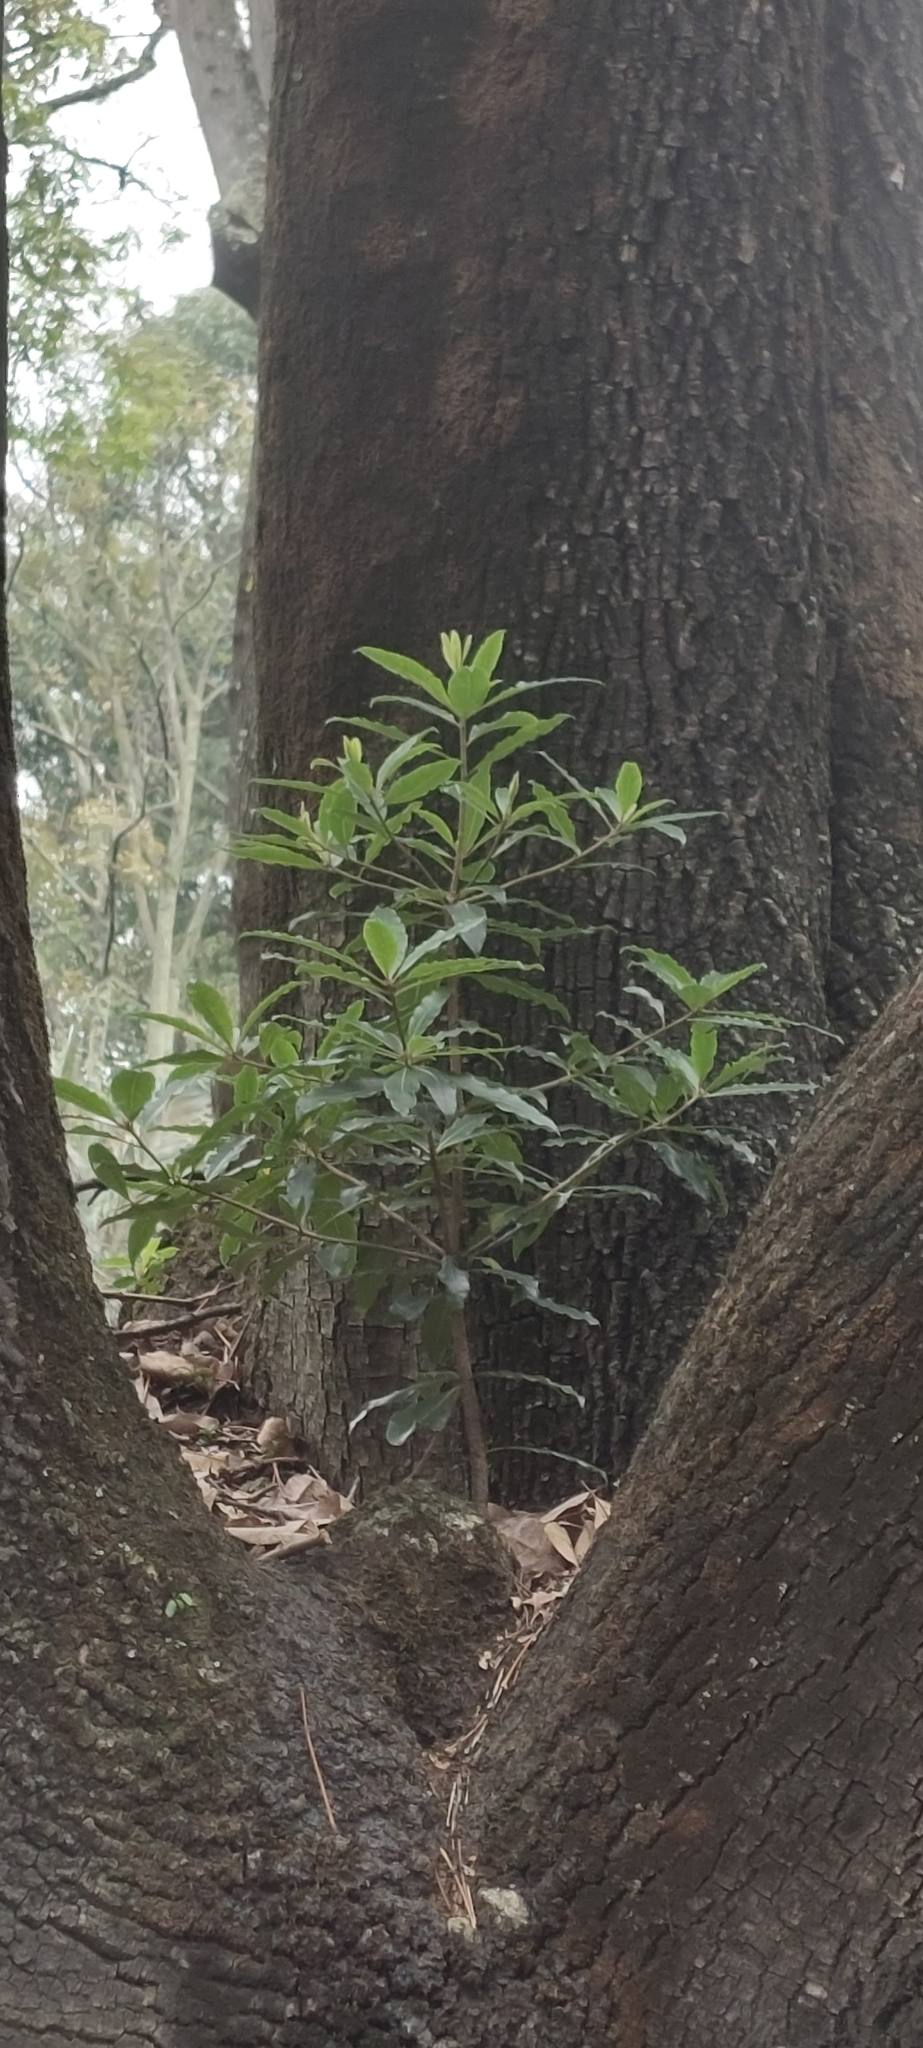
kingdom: Plantae
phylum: Tracheophyta
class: Magnoliopsida
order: Apiales
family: Pittosporaceae
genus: Pittosporum
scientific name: Pittosporum undulatum
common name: Australian cheesewood
